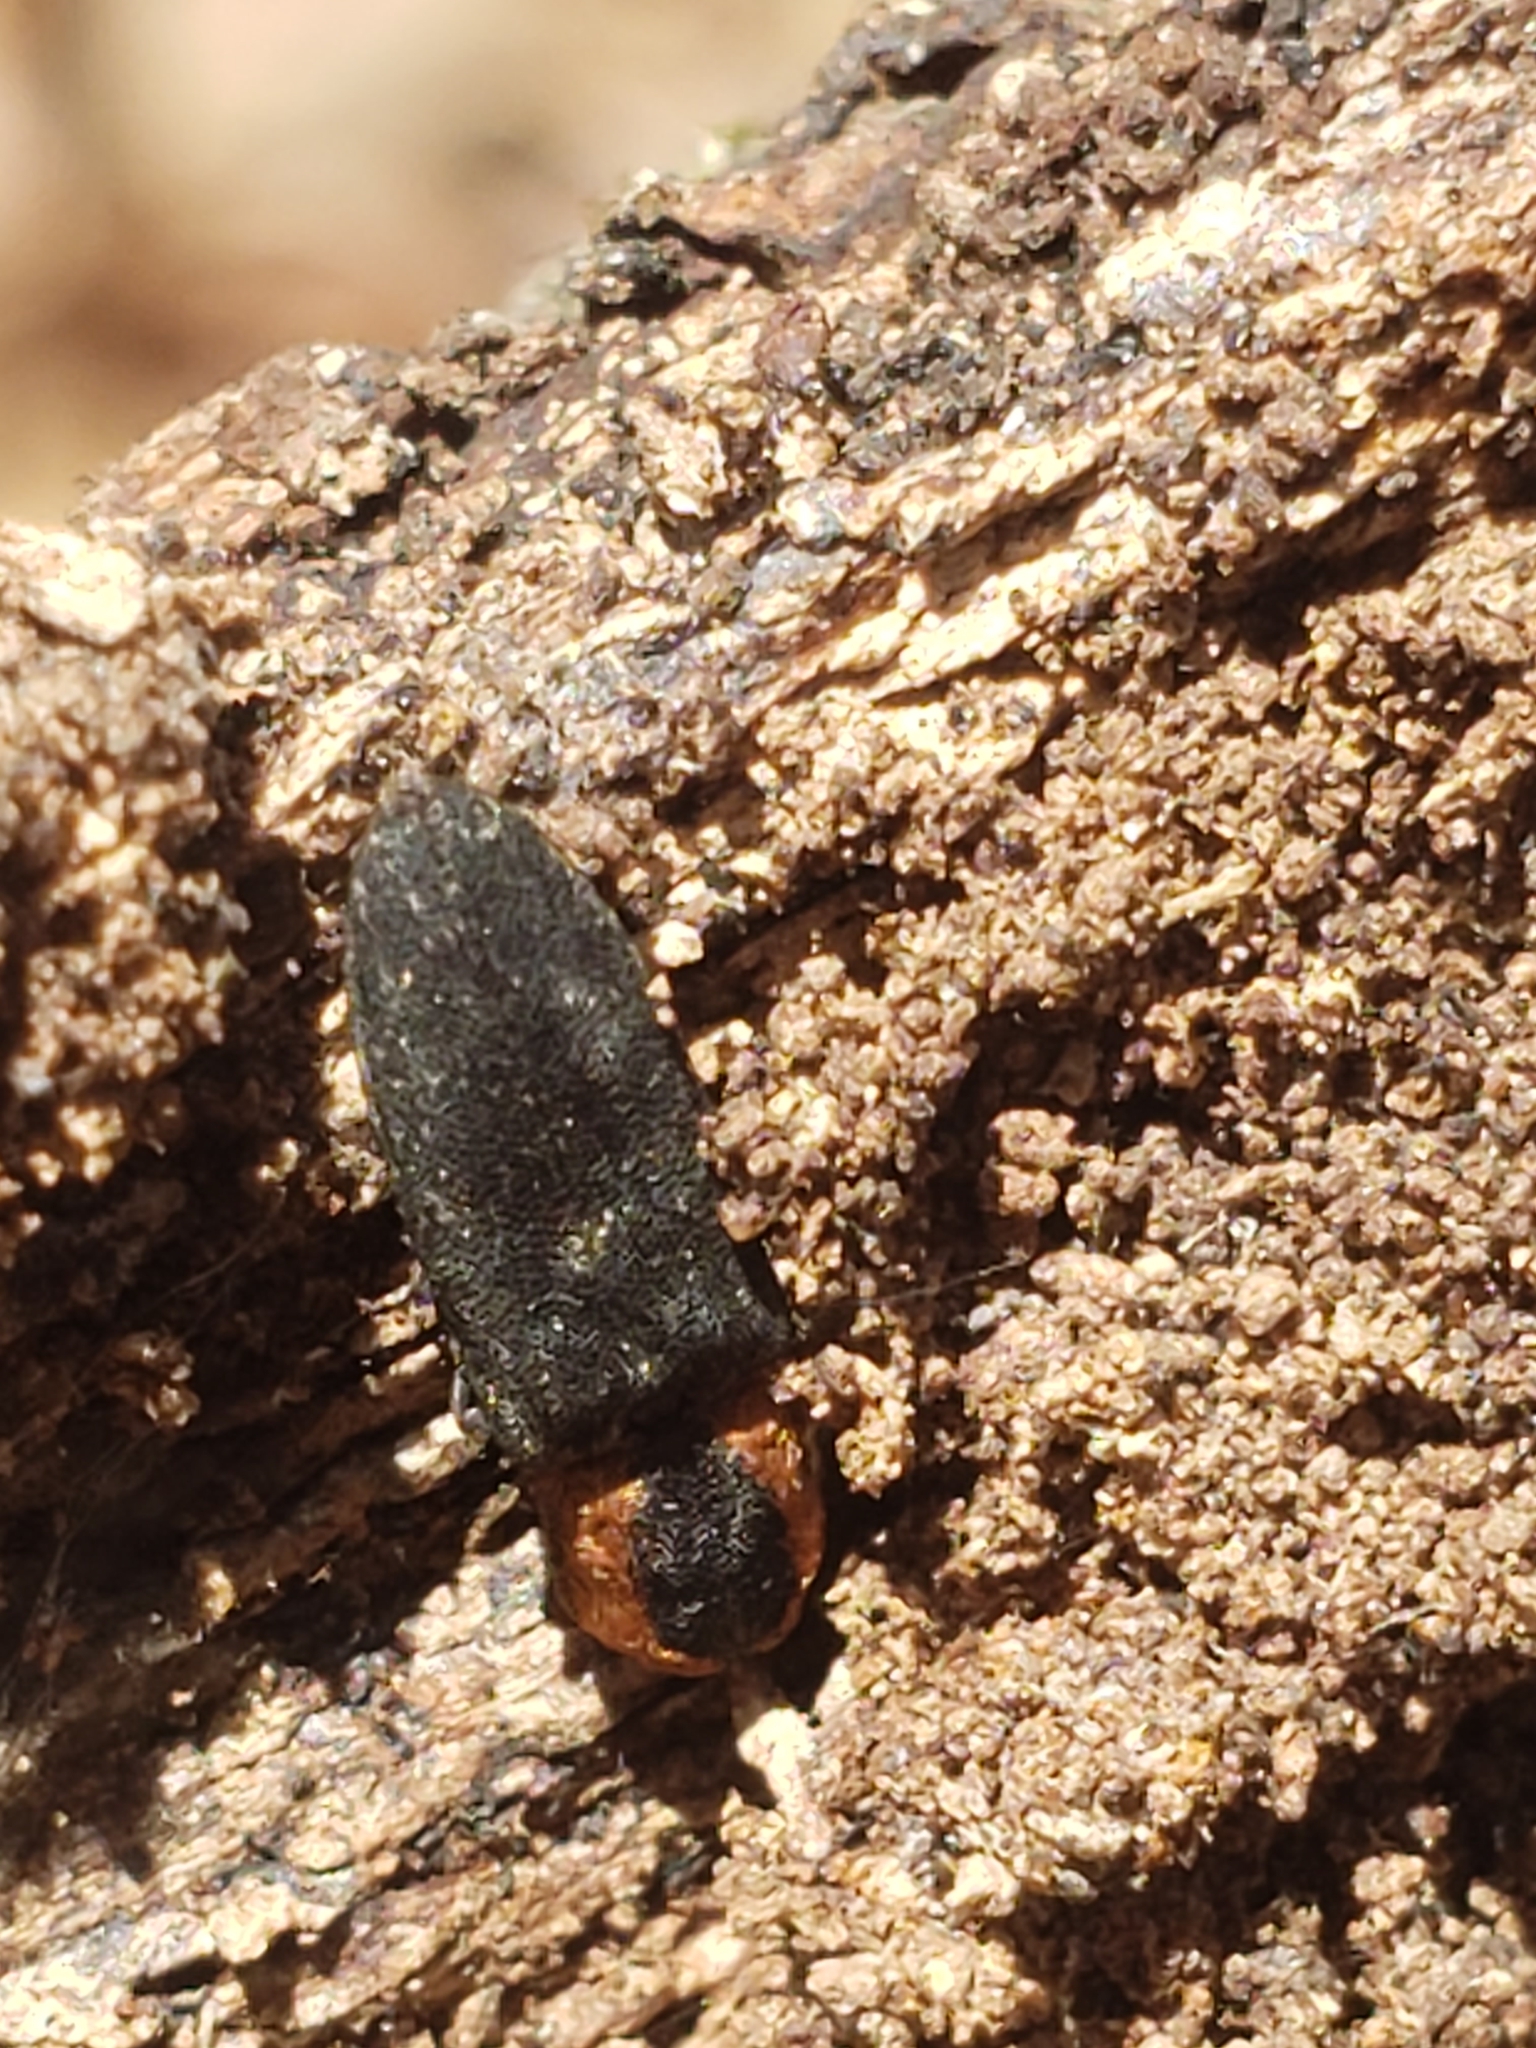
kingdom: Animalia
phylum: Arthropoda
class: Insecta
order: Coleoptera
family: Elateridae
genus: Lacon
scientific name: Lacon discoideus
